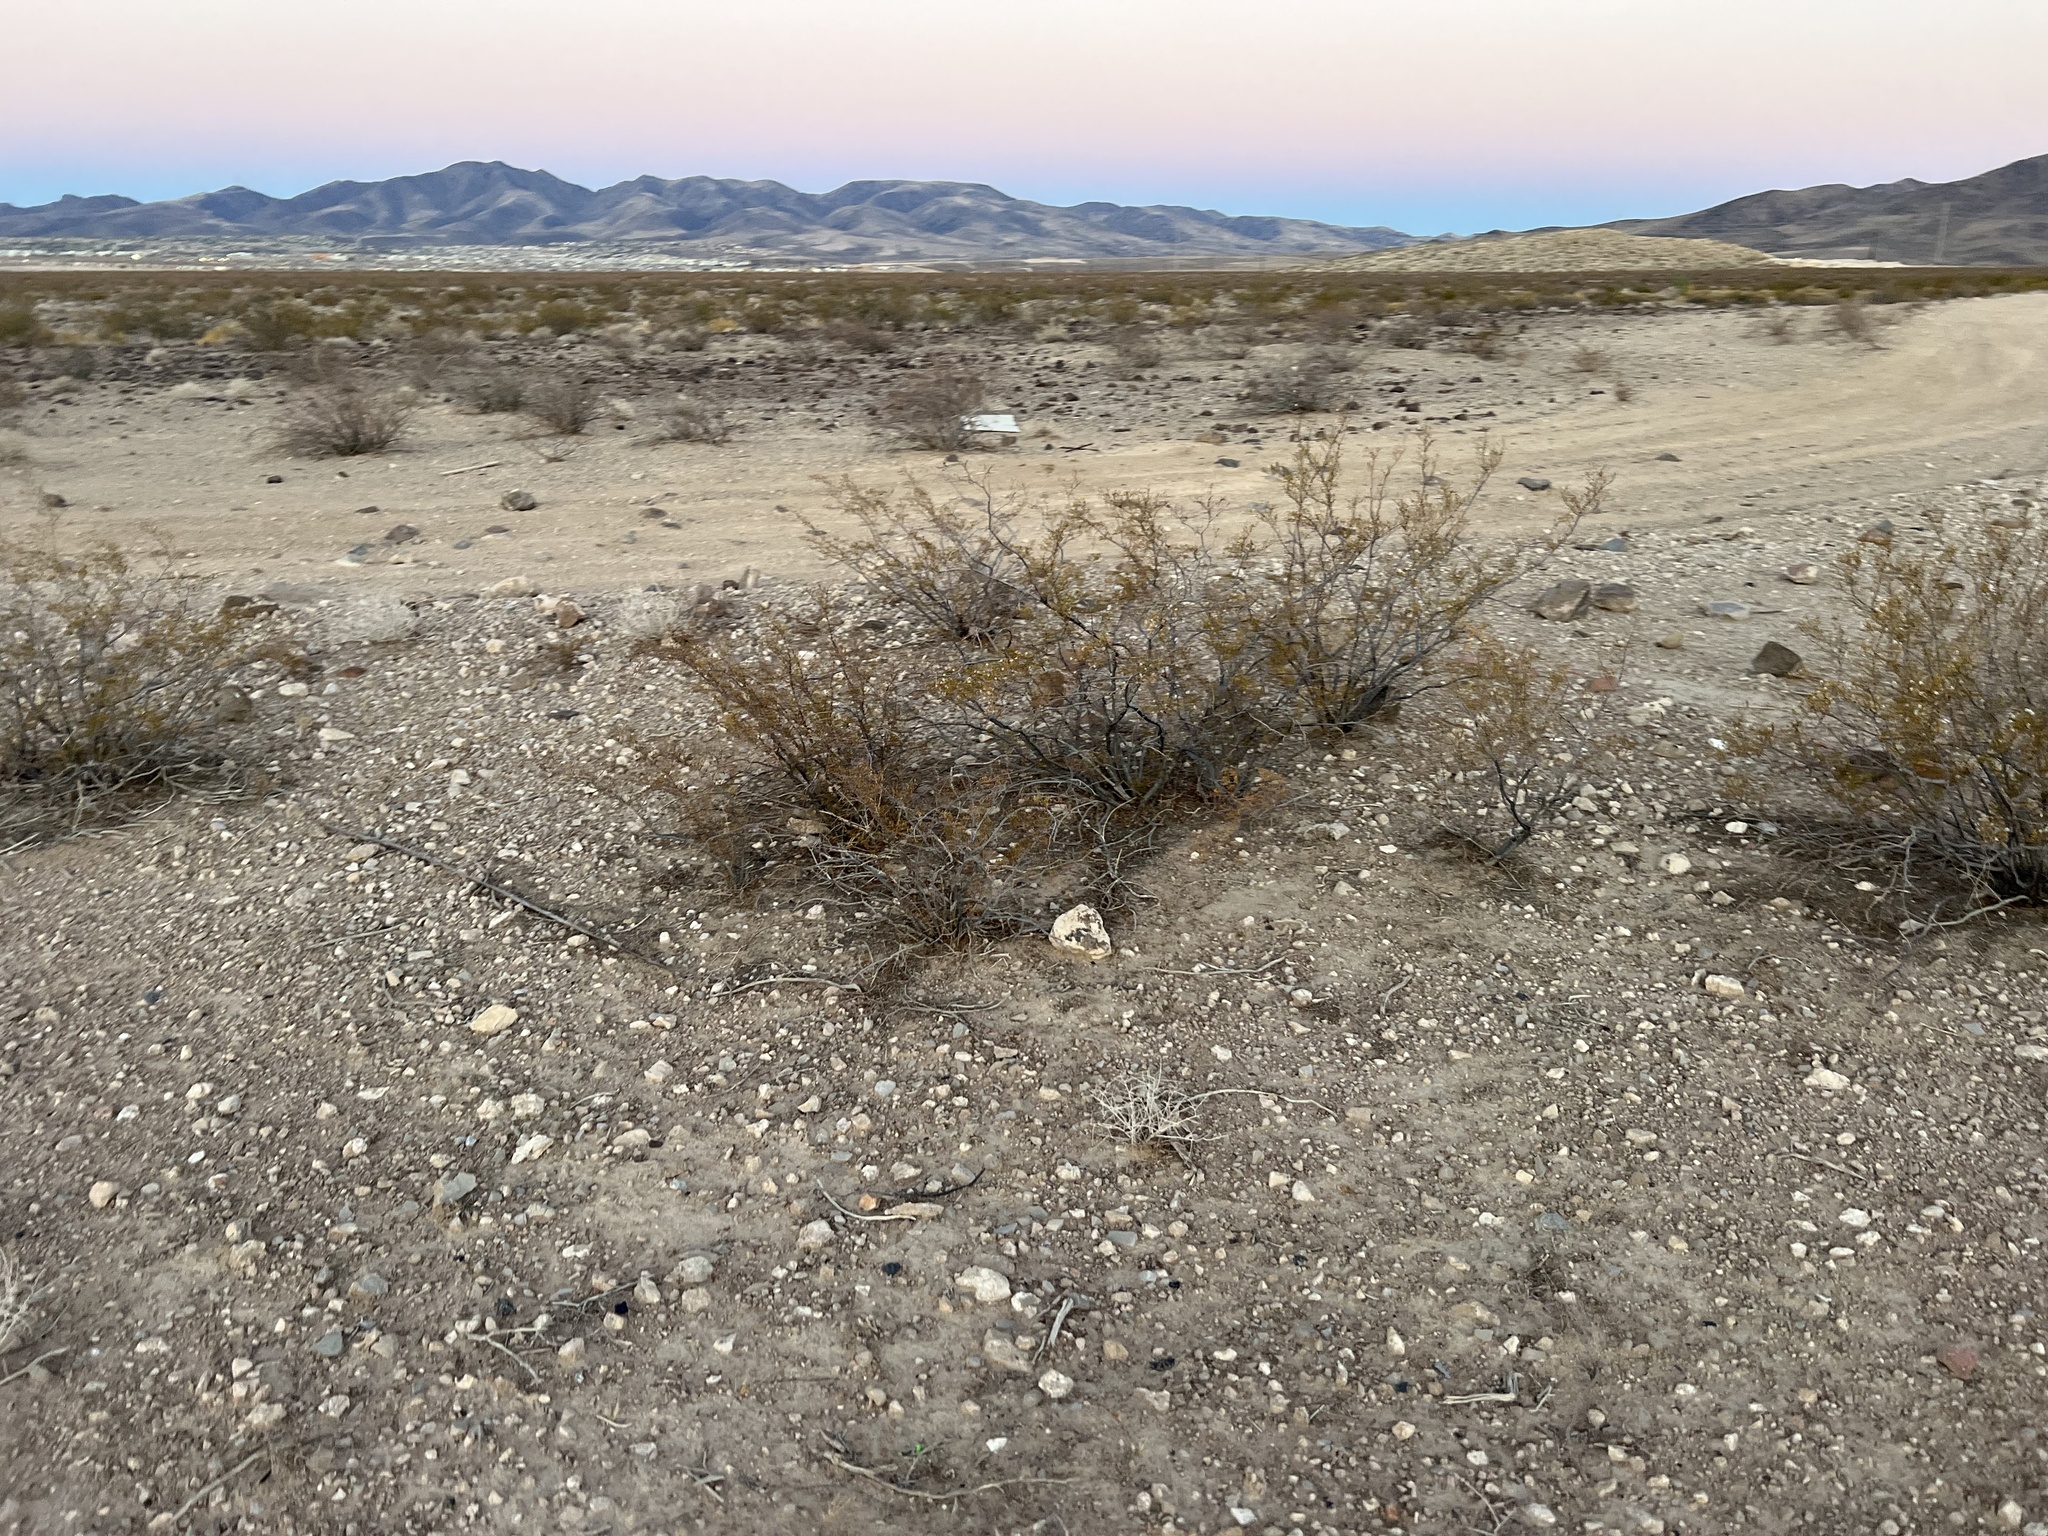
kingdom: Plantae
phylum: Tracheophyta
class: Magnoliopsida
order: Zygophyllales
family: Zygophyllaceae
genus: Larrea
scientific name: Larrea tridentata
